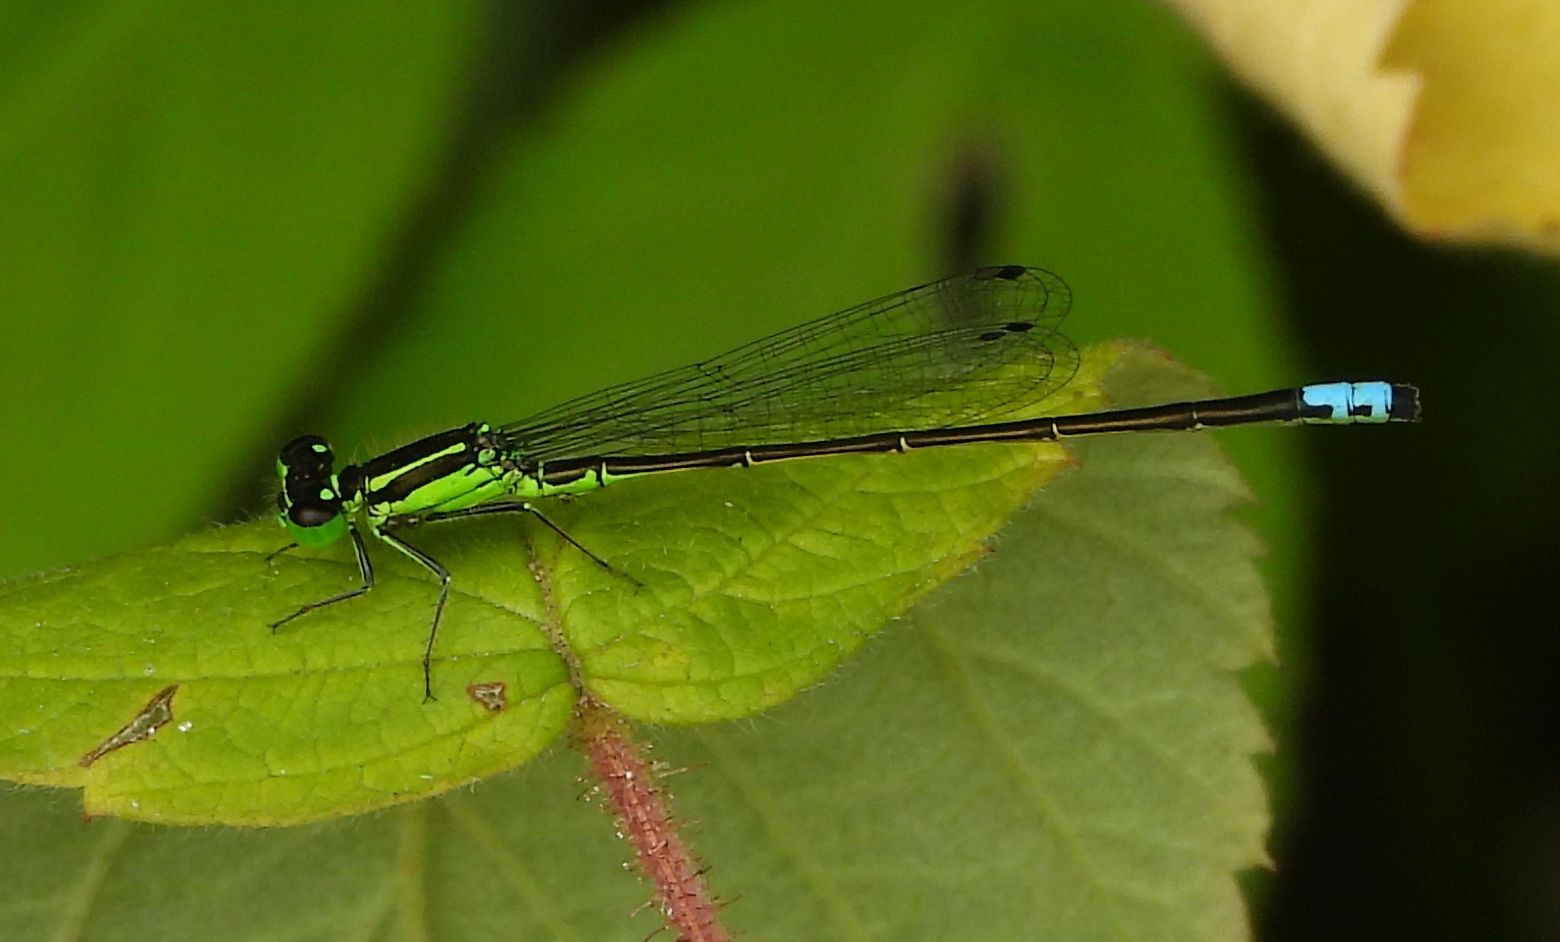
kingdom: Animalia
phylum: Arthropoda
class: Insecta
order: Odonata
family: Coenagrionidae
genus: Ischnura
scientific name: Ischnura verticalis
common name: Eastern forktail
